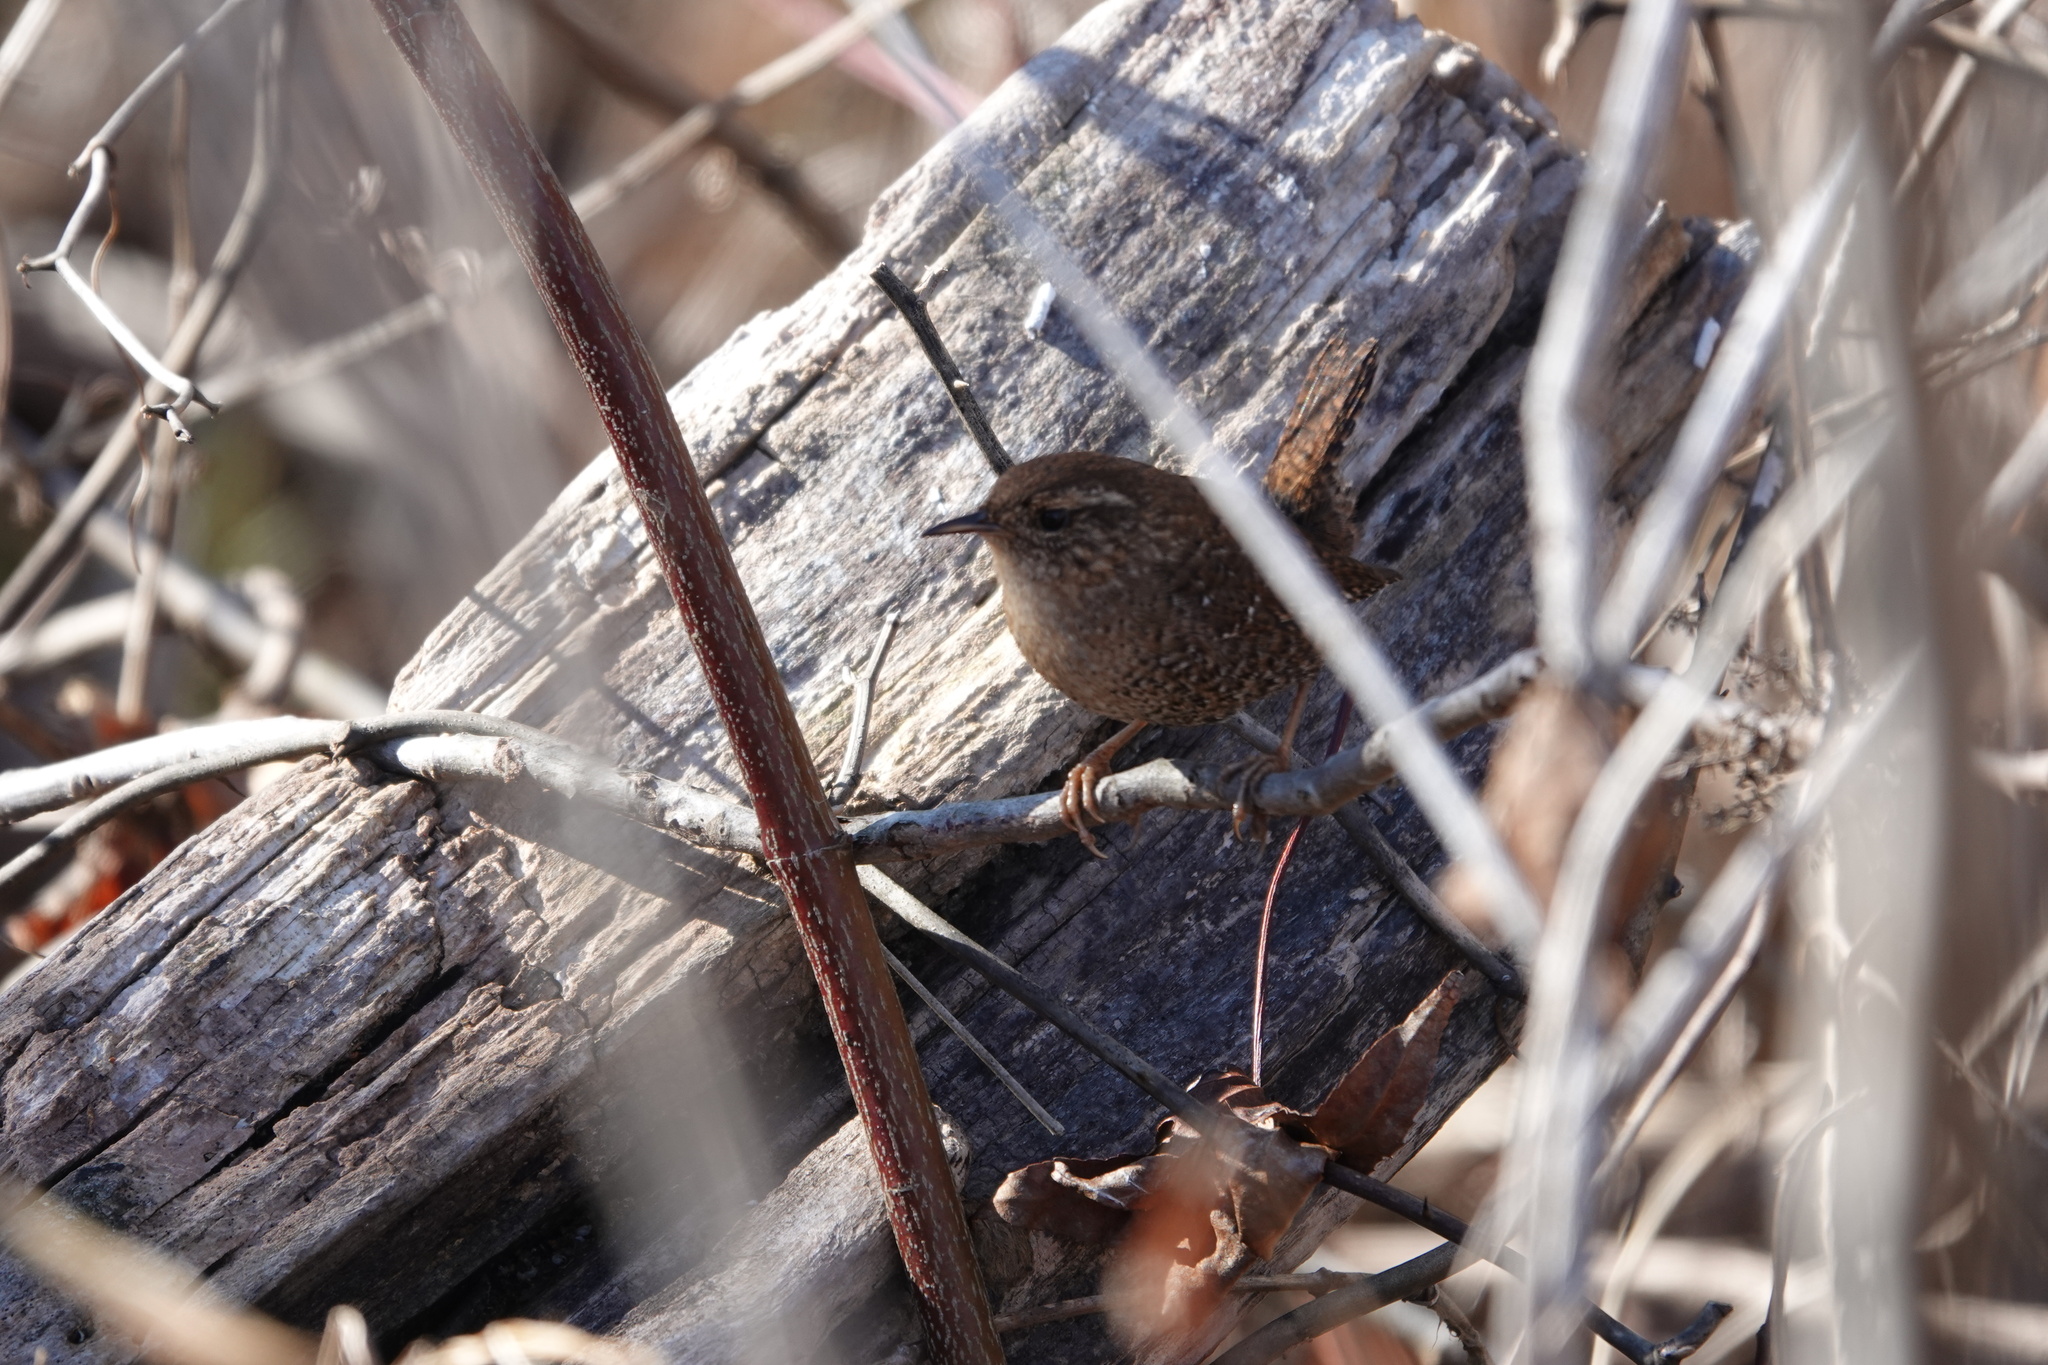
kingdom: Animalia
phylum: Chordata
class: Aves
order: Passeriformes
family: Troglodytidae
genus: Troglodytes
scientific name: Troglodytes hiemalis
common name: Winter wren
